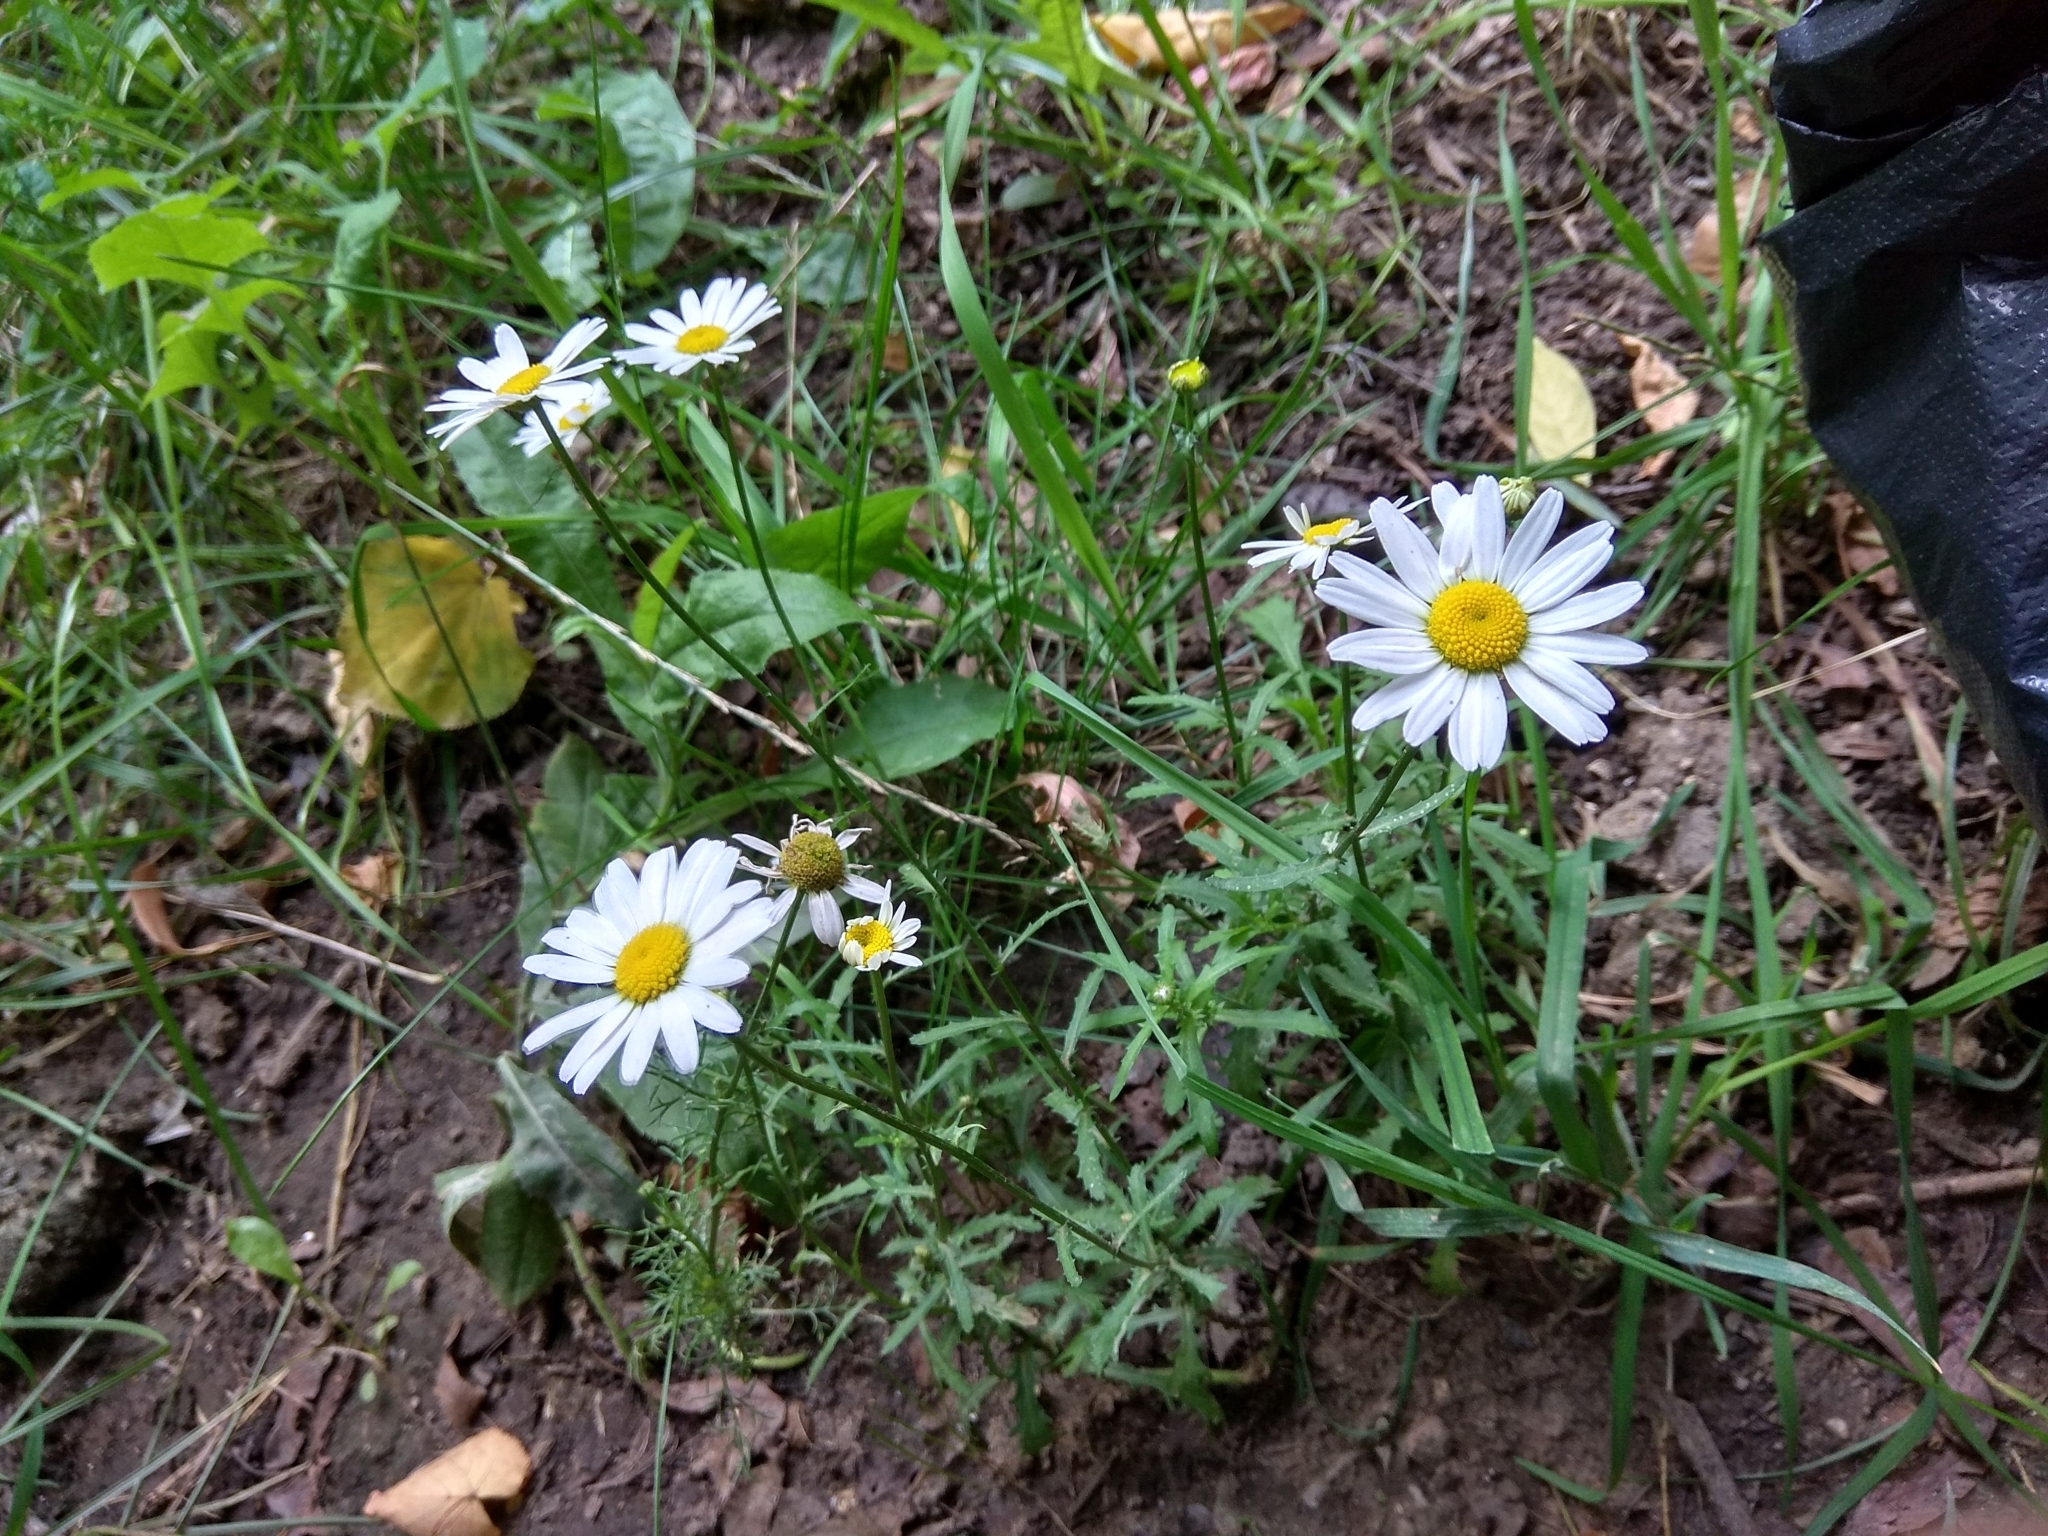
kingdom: Plantae
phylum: Tracheophyta
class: Magnoliopsida
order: Asterales
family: Asteraceae
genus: Leucanthemum
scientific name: Leucanthemum vulgare
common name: Oxeye daisy
